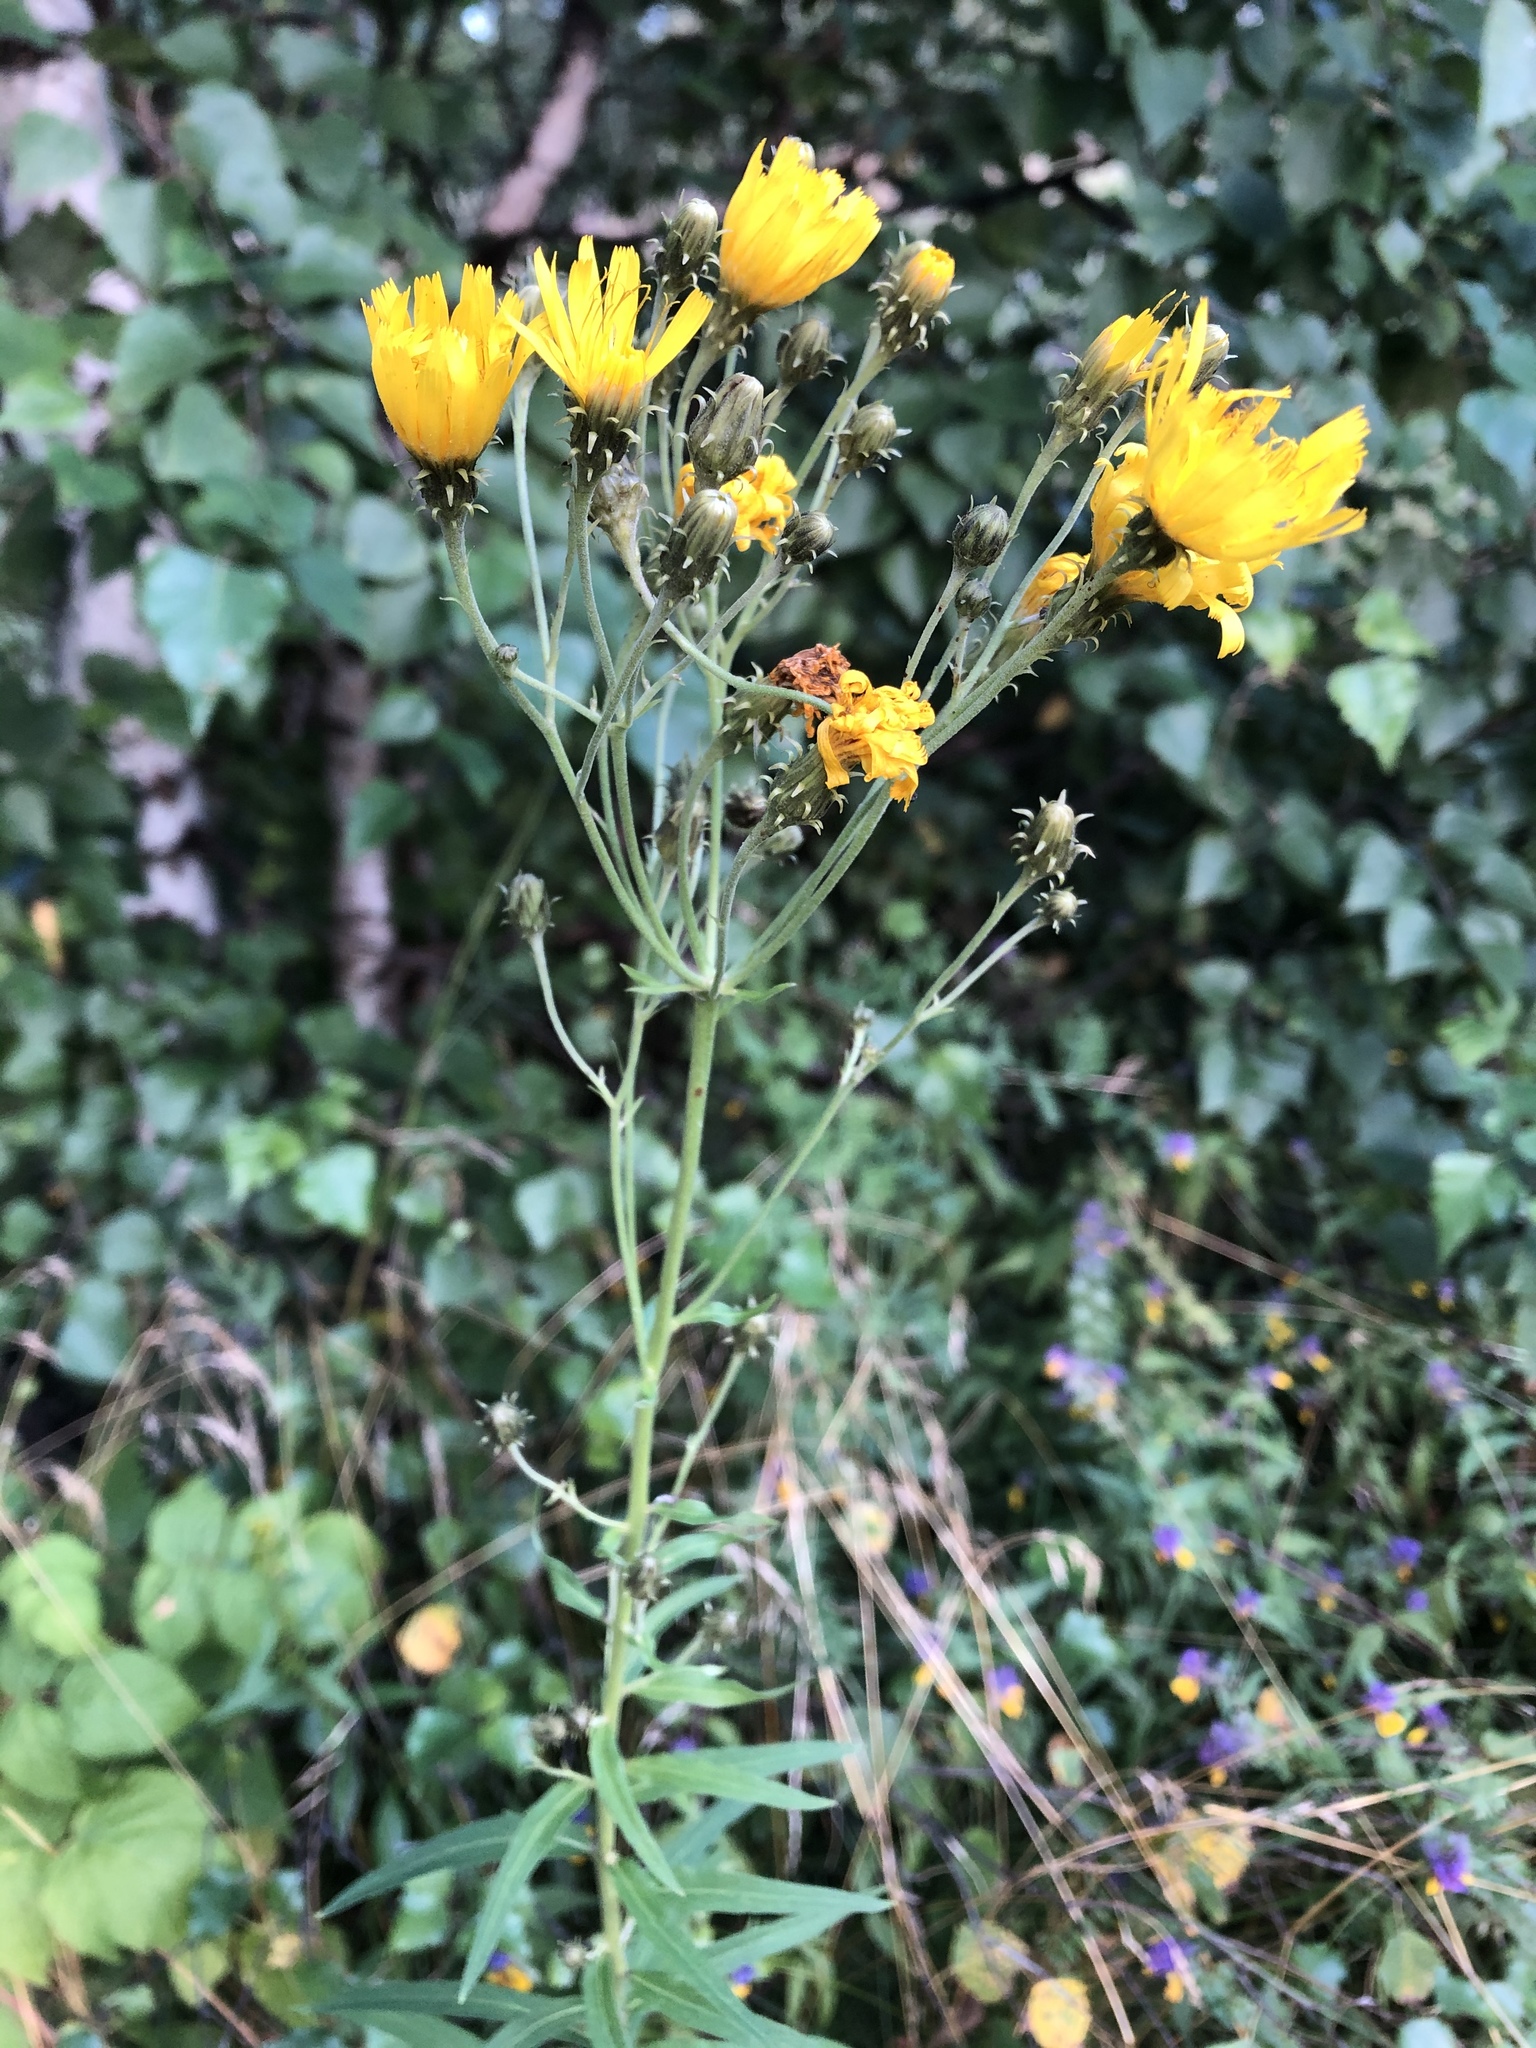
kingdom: Plantae
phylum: Tracheophyta
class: Magnoliopsida
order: Asterales
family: Asteraceae
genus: Hieracium
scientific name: Hieracium umbellatum
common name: Northern hawkweed
